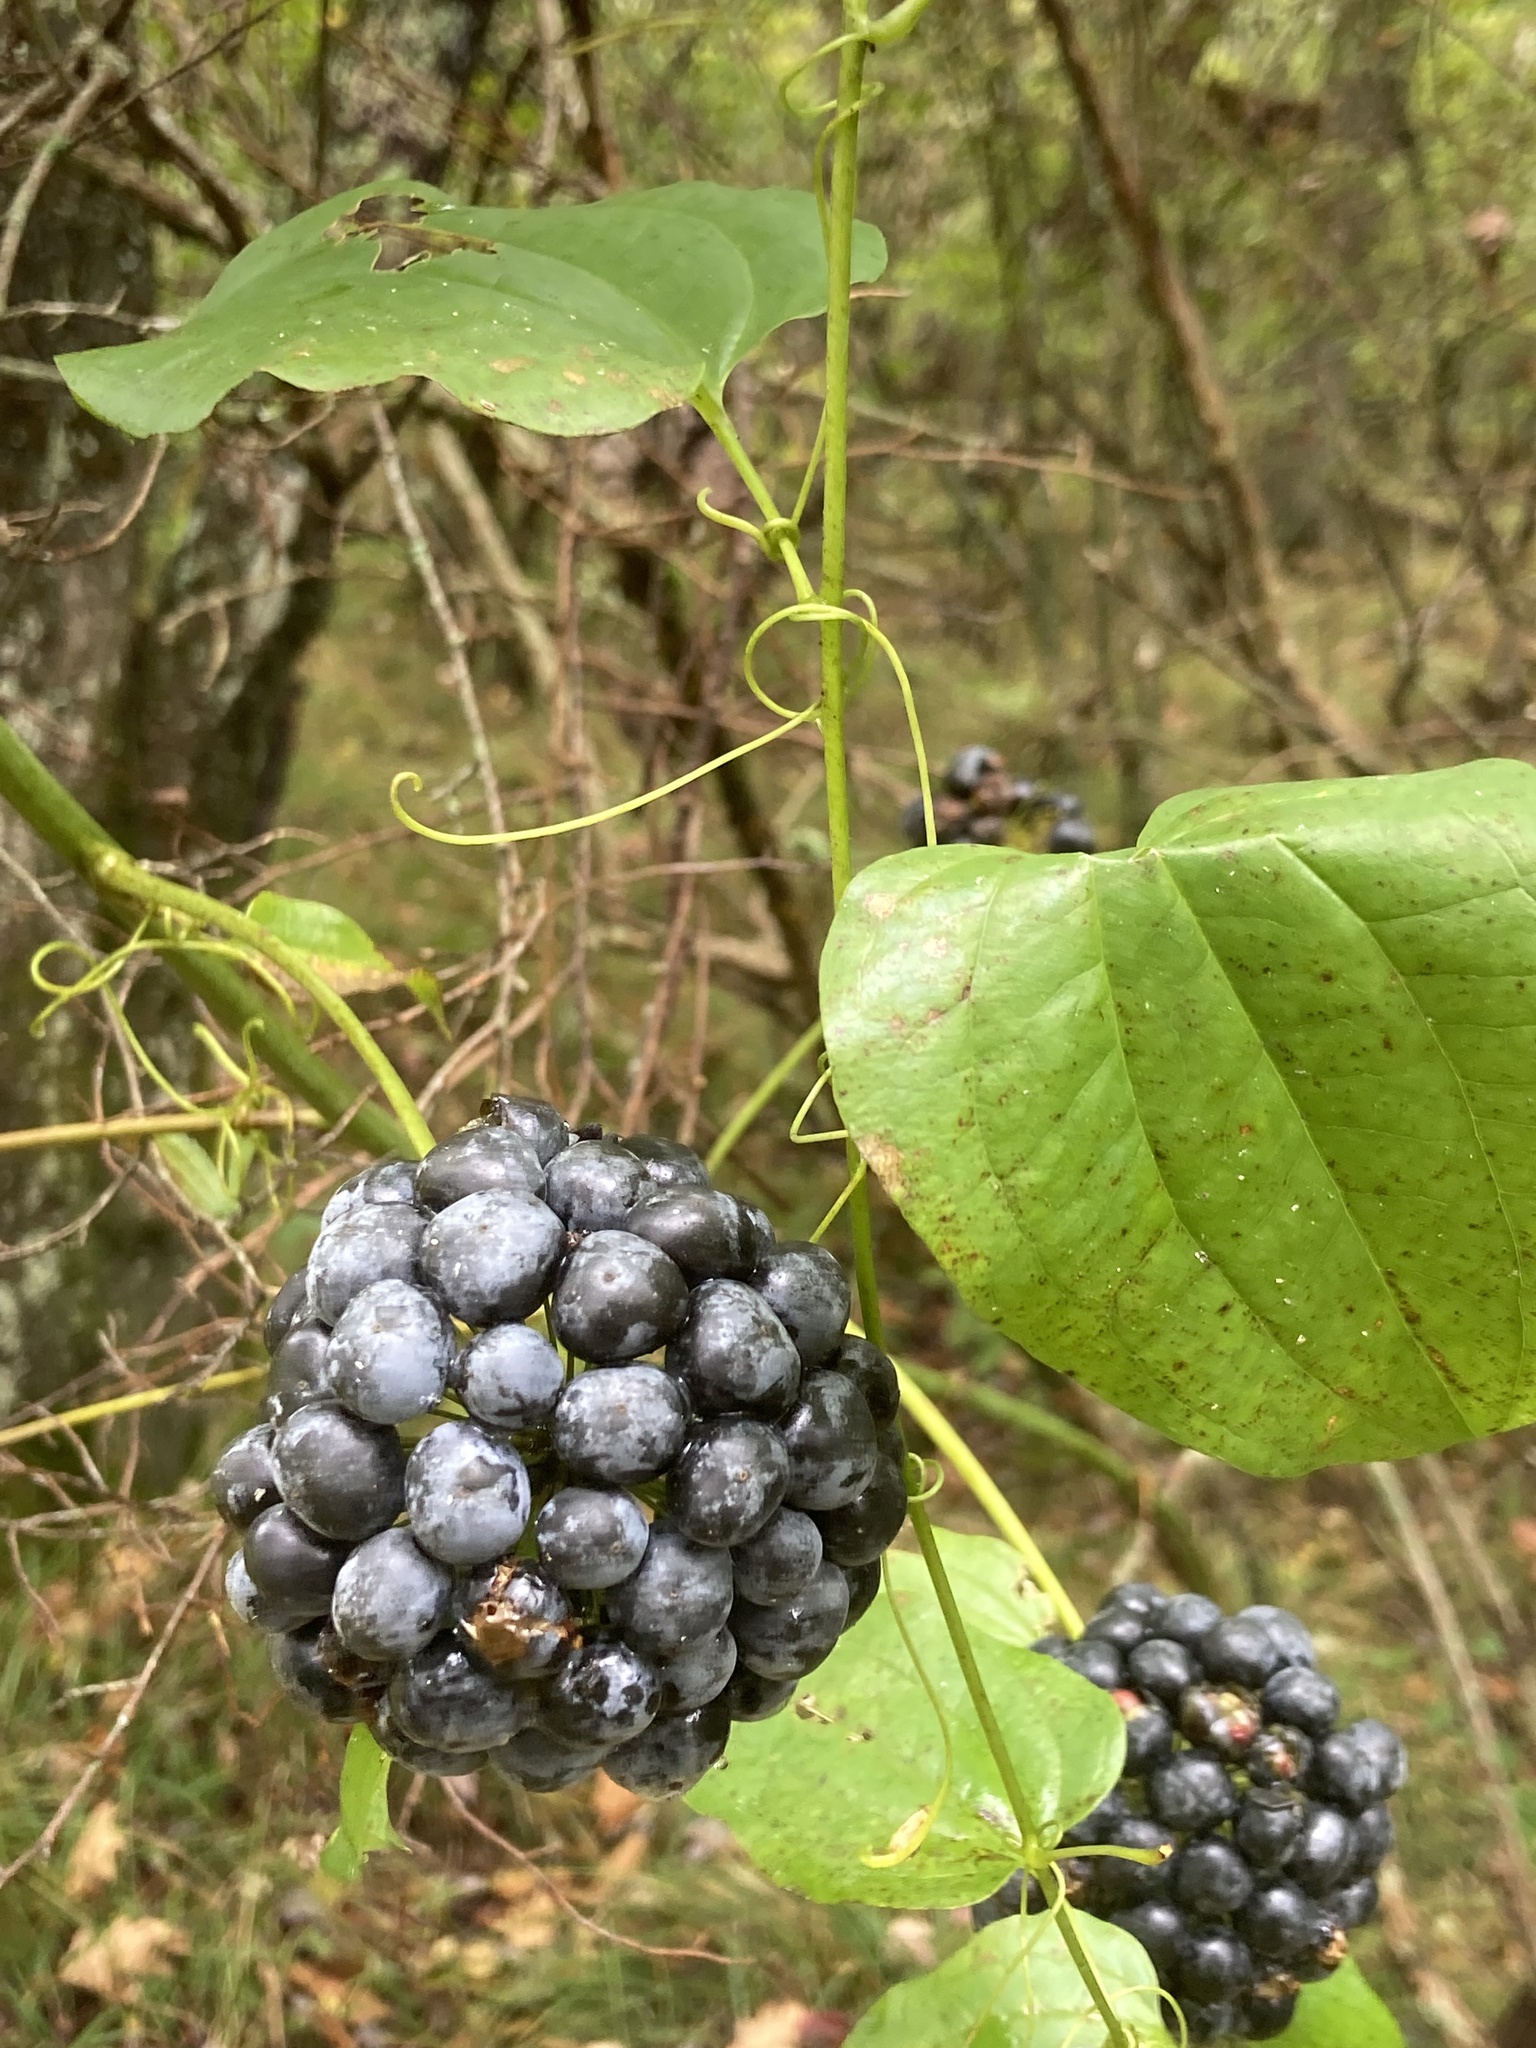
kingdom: Plantae
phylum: Tracheophyta
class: Liliopsida
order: Liliales
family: Smilacaceae
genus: Smilax
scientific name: Smilax herbacea
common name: Jacob's-ladder
